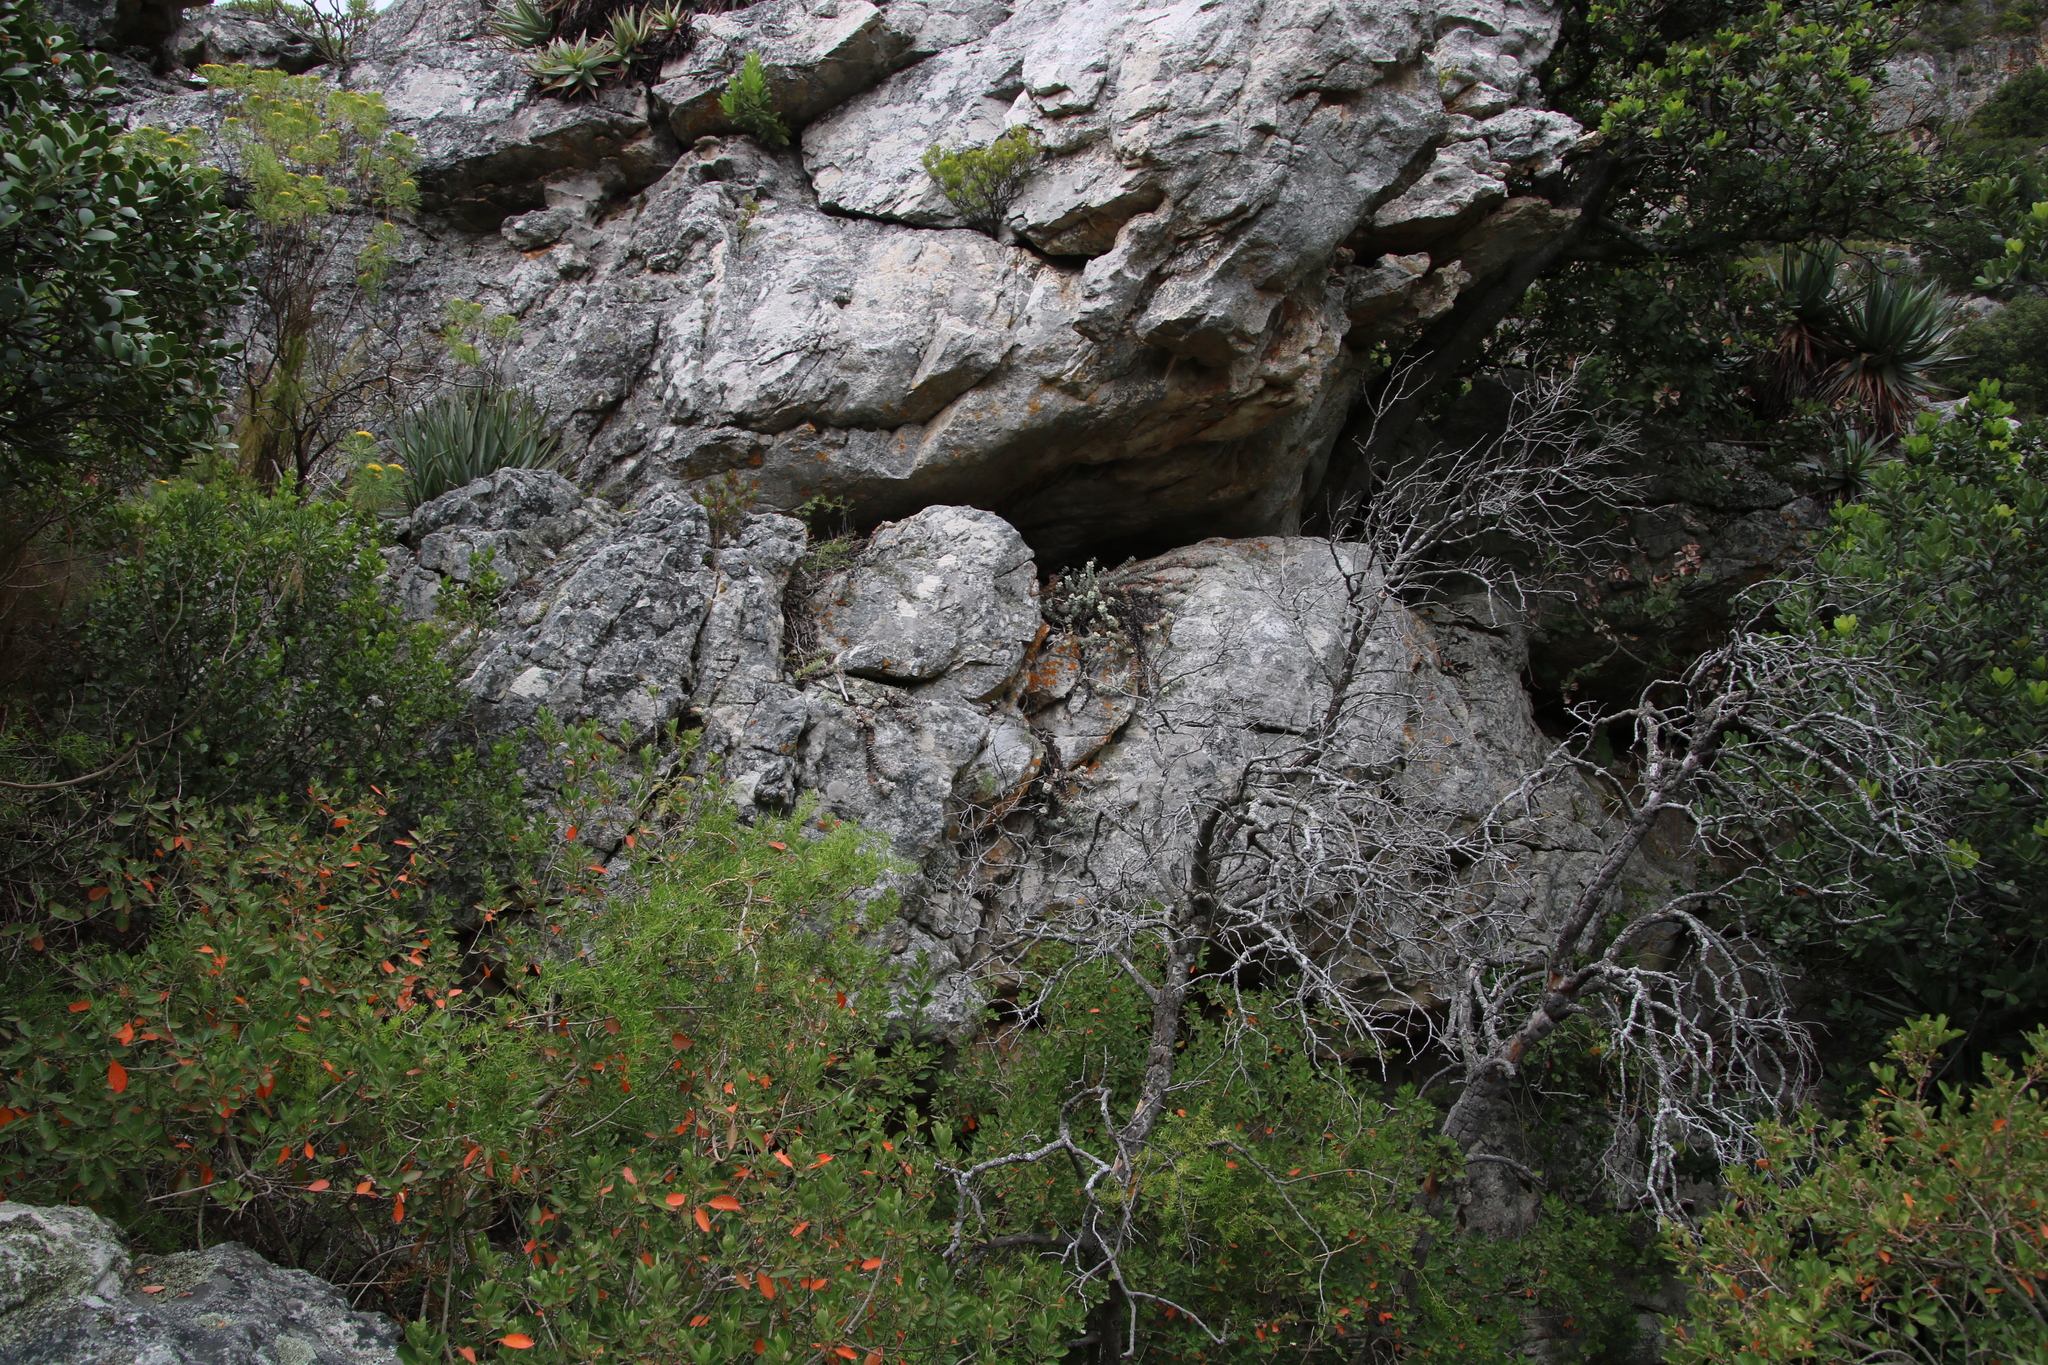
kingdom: Plantae
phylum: Tracheophyta
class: Magnoliopsida
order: Saxifragales
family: Crassulaceae
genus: Crassula
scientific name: Crassula rupestris
